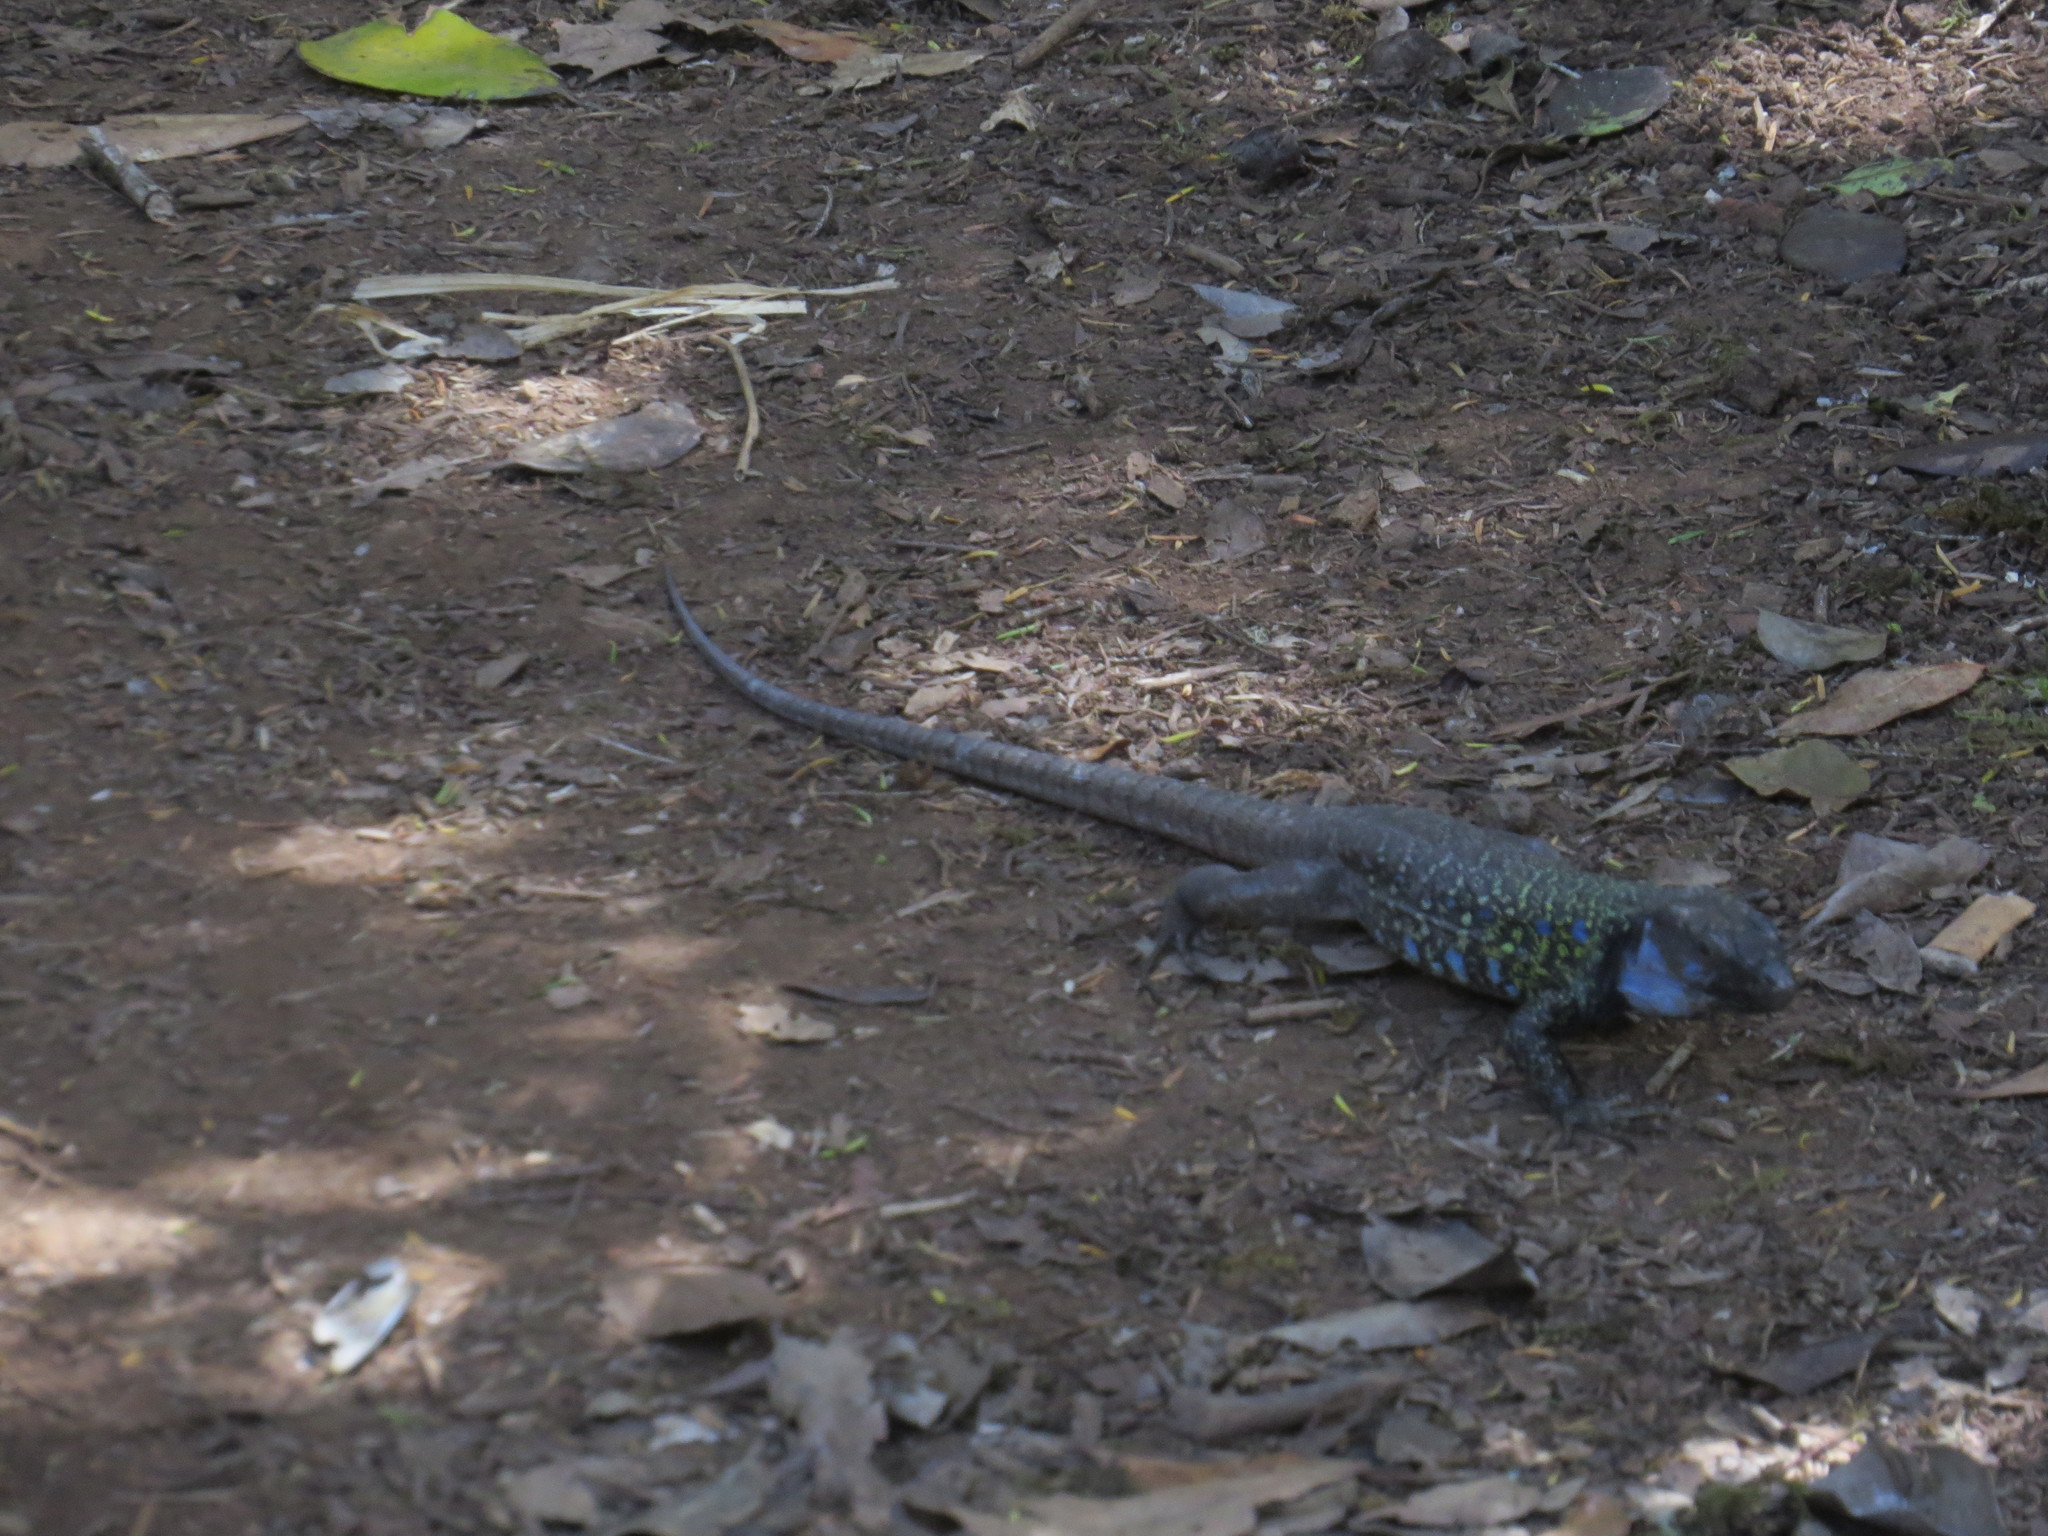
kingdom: Animalia
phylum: Chordata
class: Squamata
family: Lacertidae
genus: Gallotia
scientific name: Gallotia galloti
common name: Gallot's lizard
